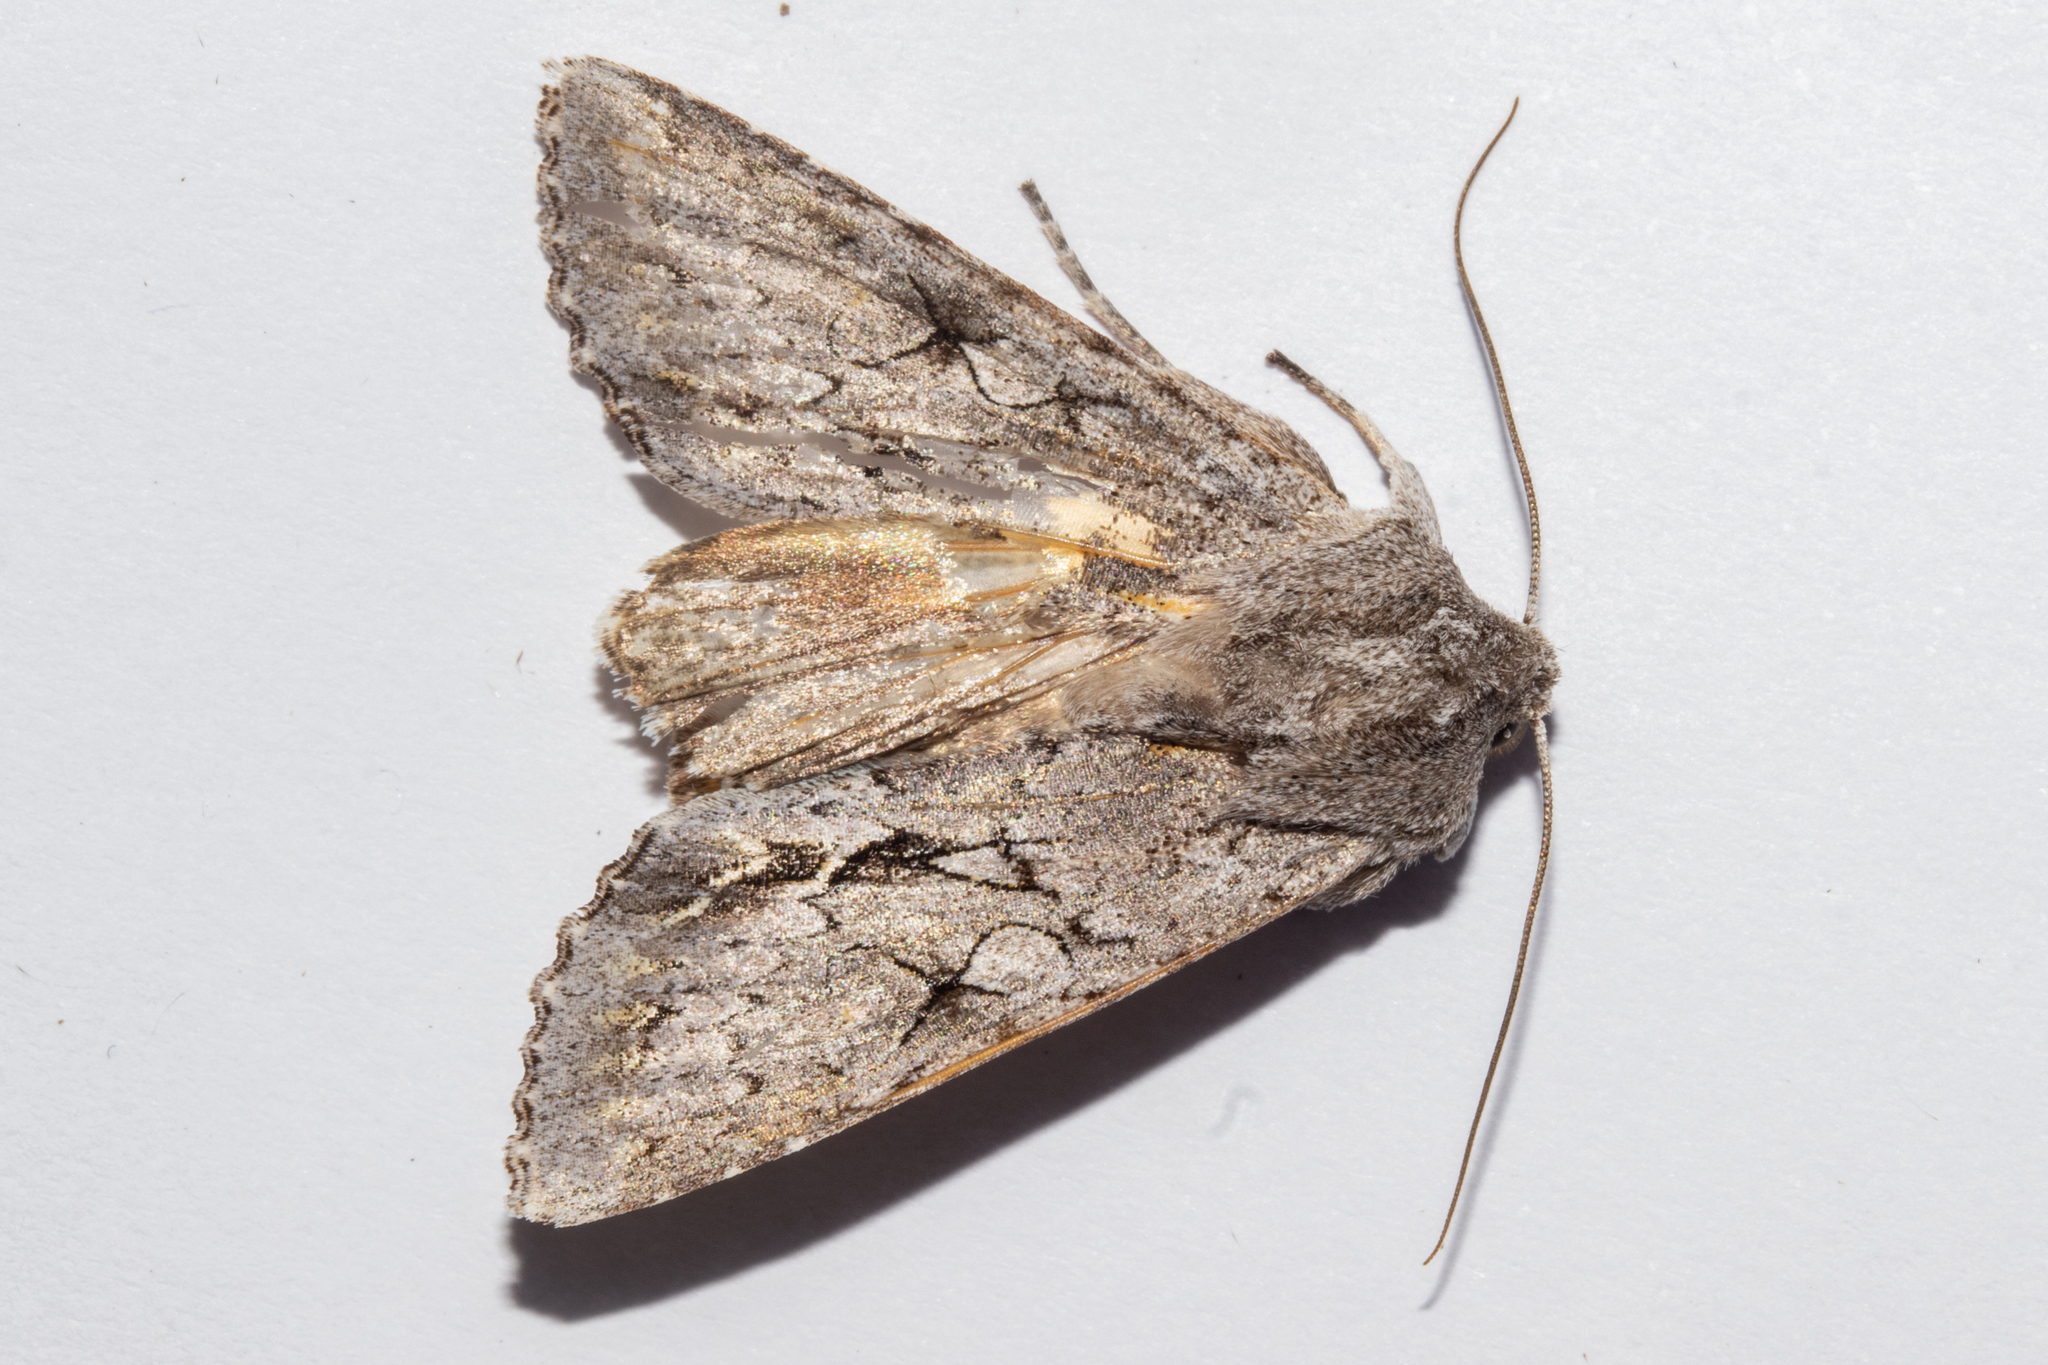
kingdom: Animalia
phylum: Arthropoda
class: Insecta
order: Lepidoptera
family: Noctuidae
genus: Ichneutica
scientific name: Ichneutica
